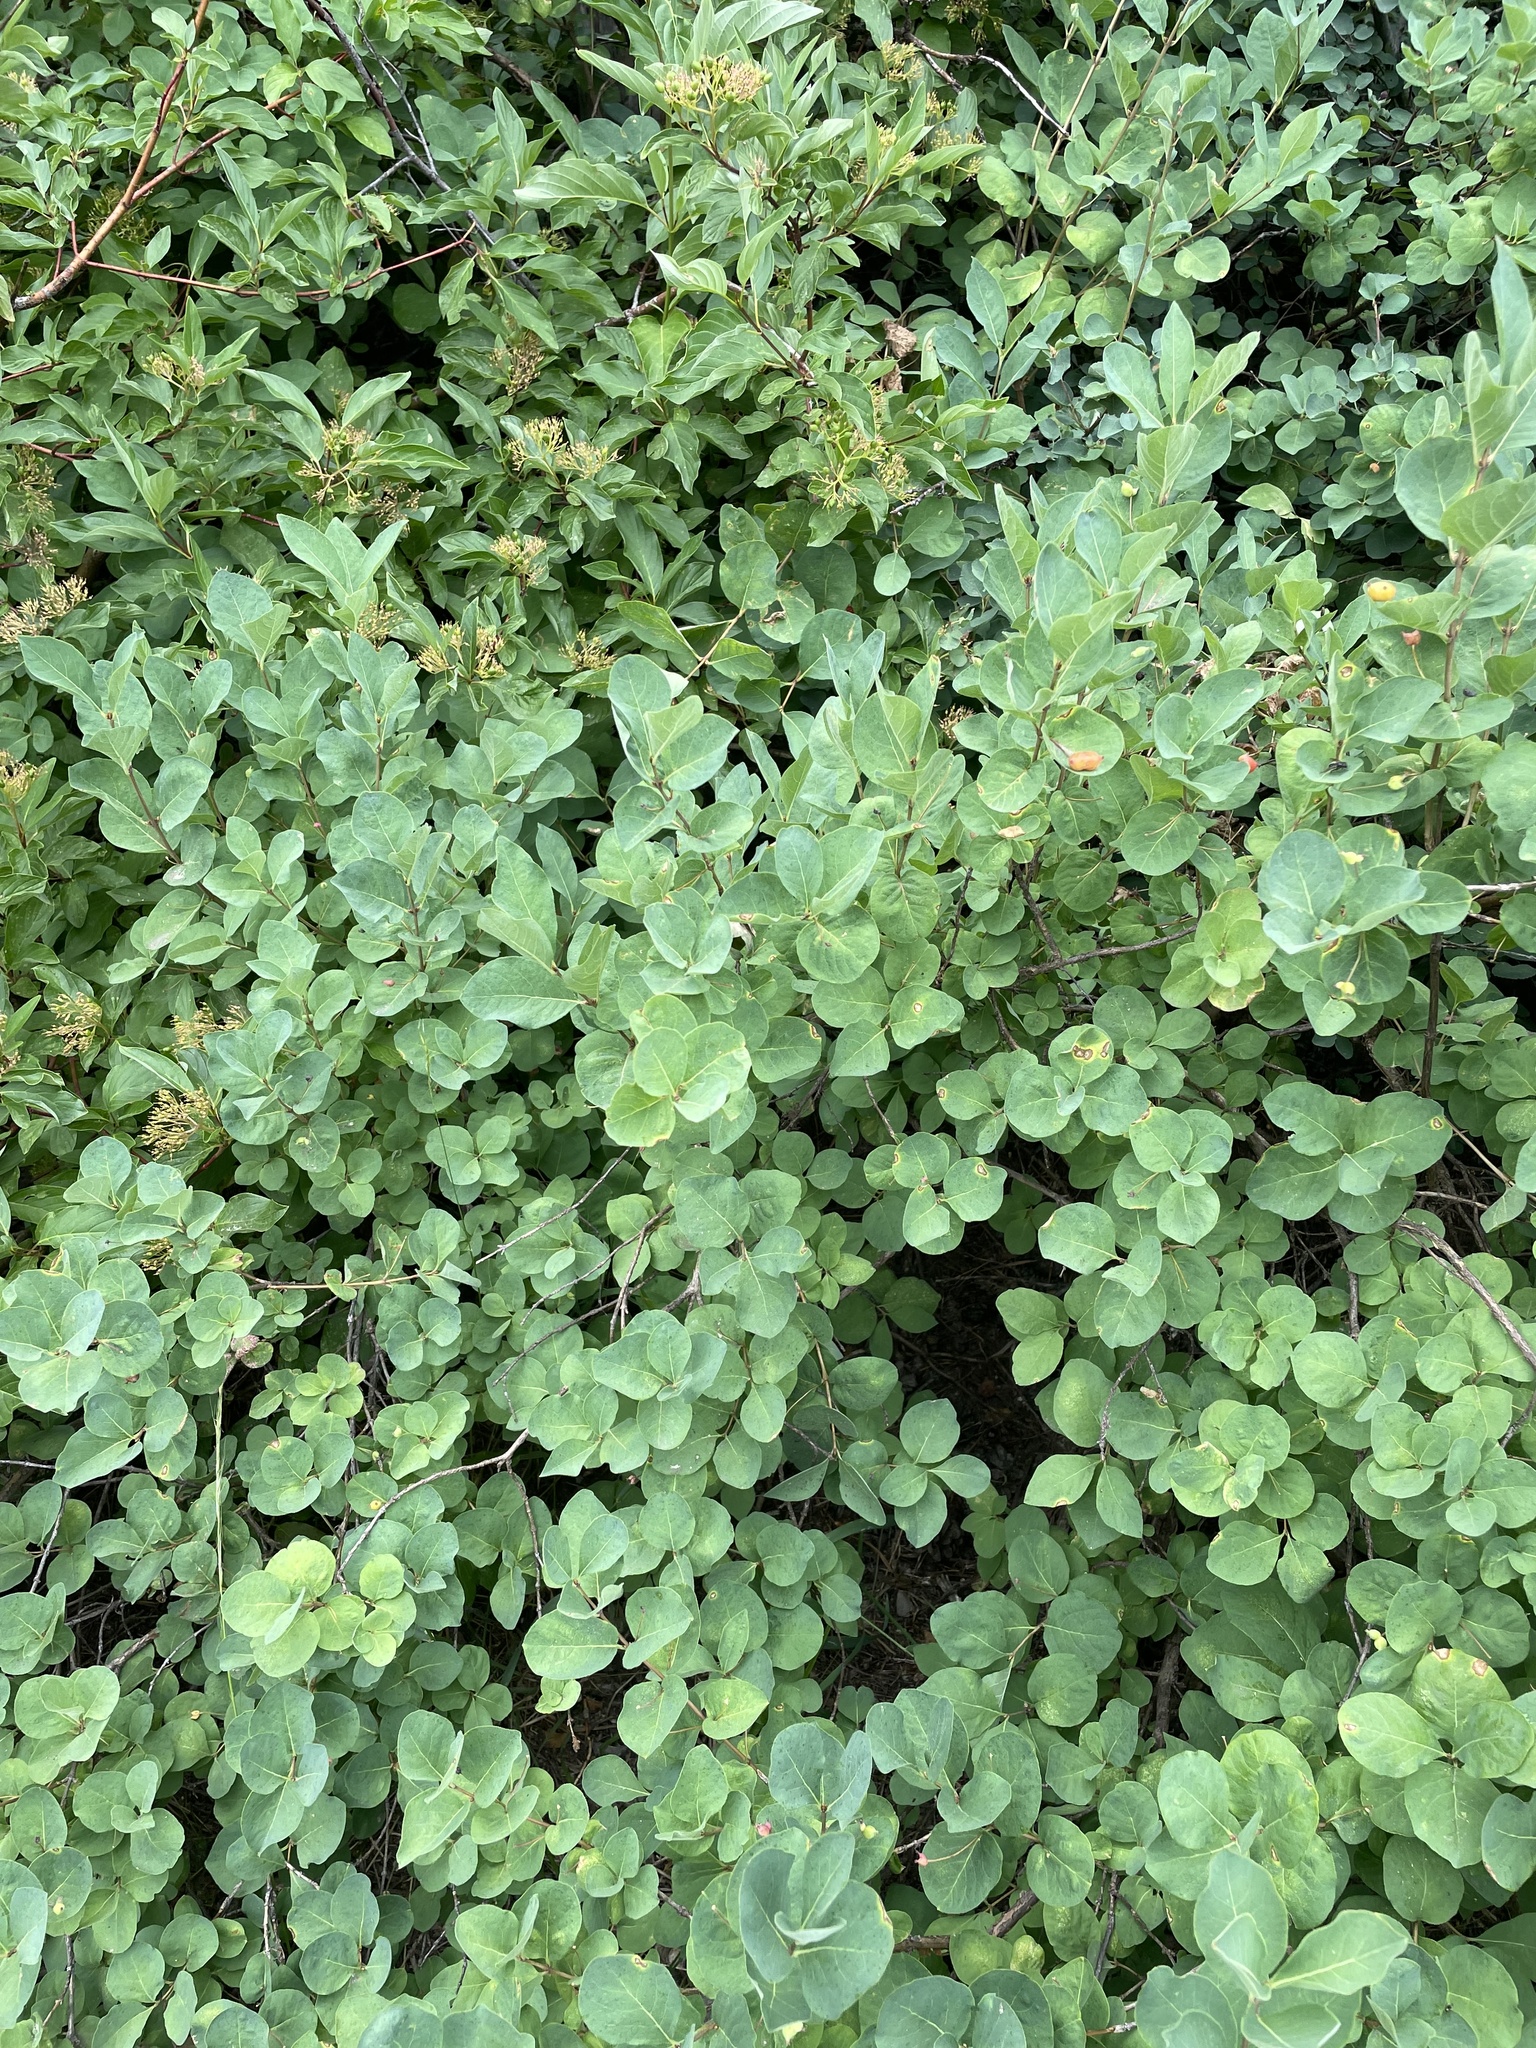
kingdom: Plantae
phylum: Tracheophyta
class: Magnoliopsida
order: Dipsacales
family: Caprifoliaceae
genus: Lonicera
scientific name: Lonicera conjugialis
